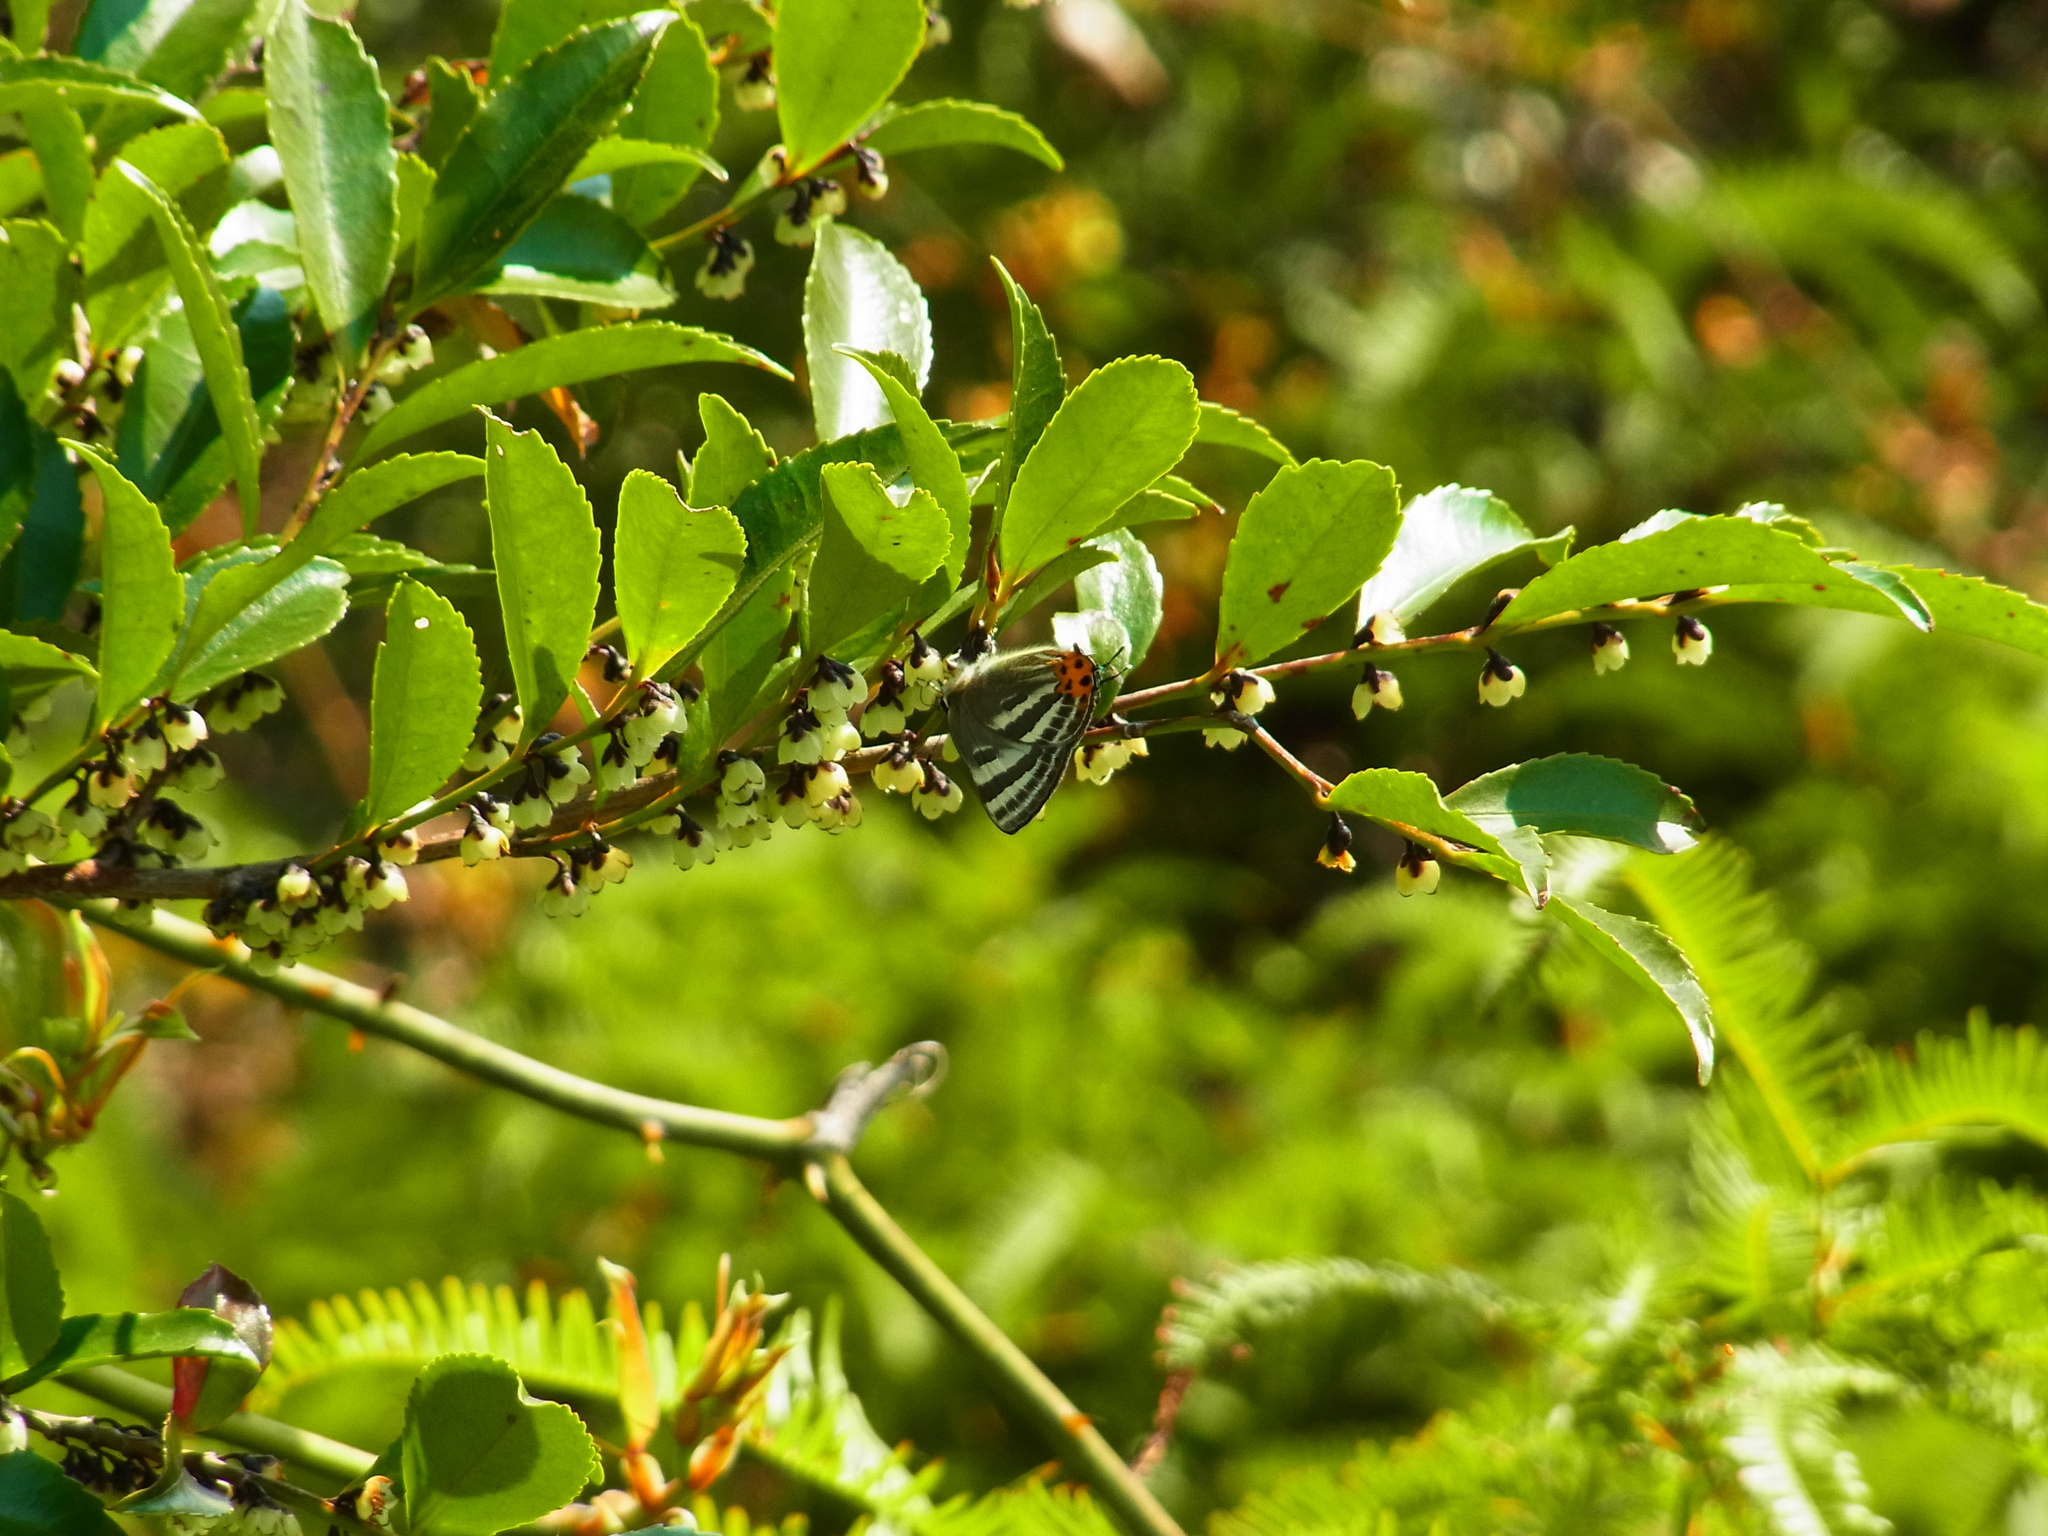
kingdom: Animalia
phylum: Arthropoda
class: Insecta
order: Lepidoptera
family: Lycaenidae
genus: Rapala
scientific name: Rapala arata
